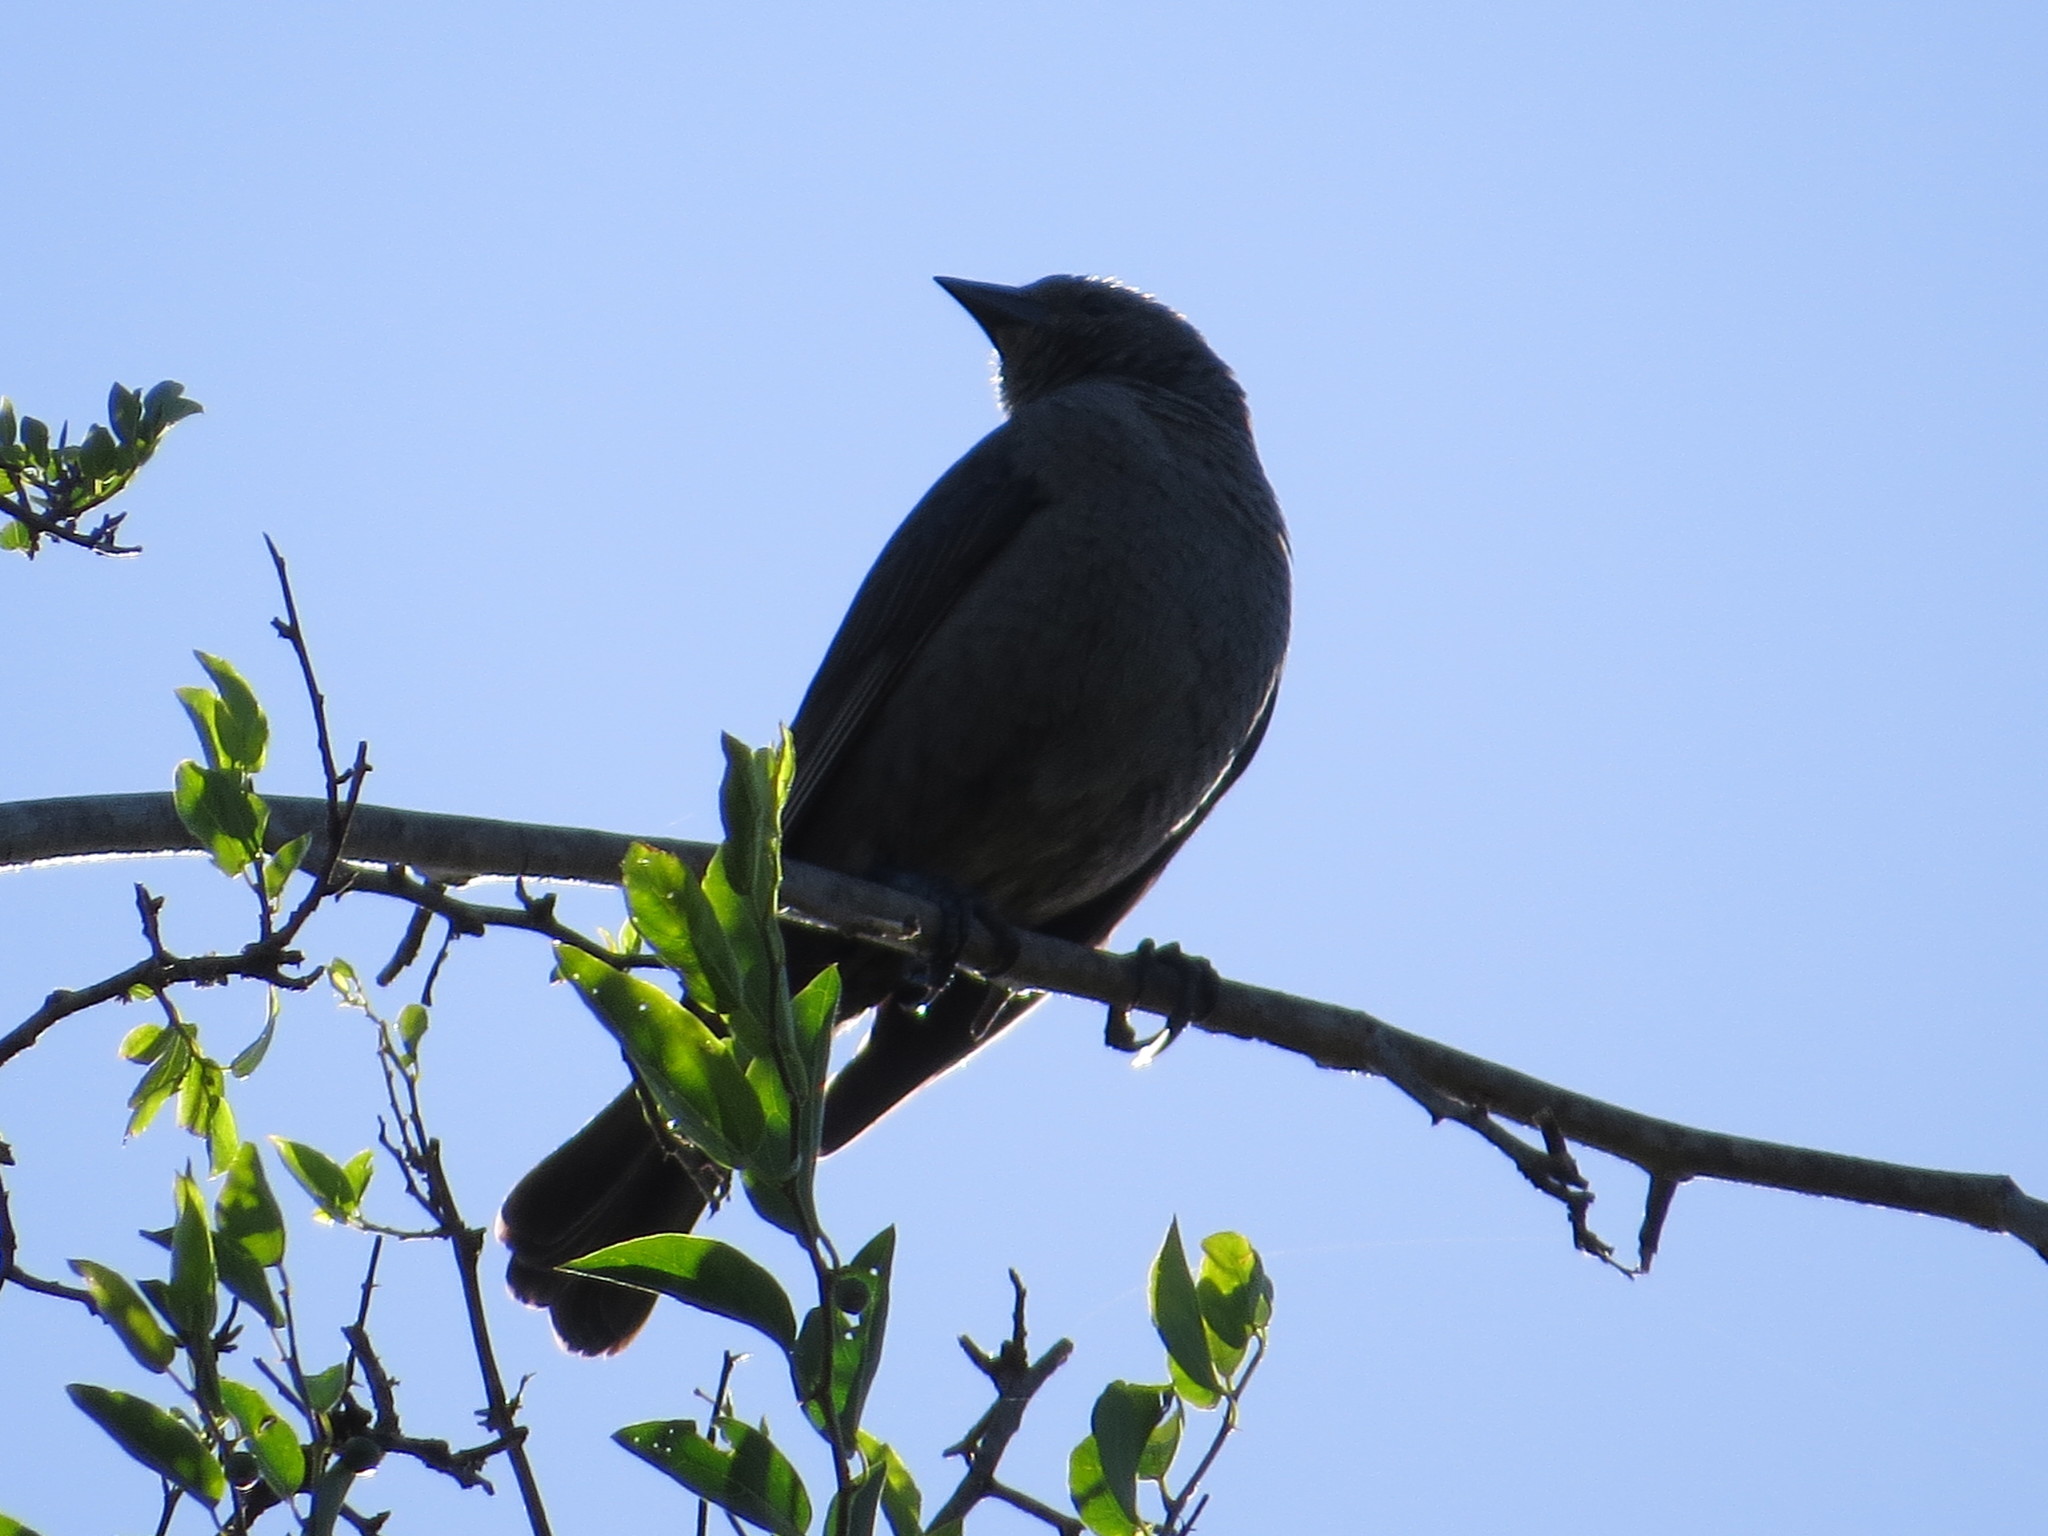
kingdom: Animalia
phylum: Chordata
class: Aves
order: Passeriformes
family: Icteridae
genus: Molothrus
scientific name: Molothrus bonariensis
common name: Shiny cowbird
